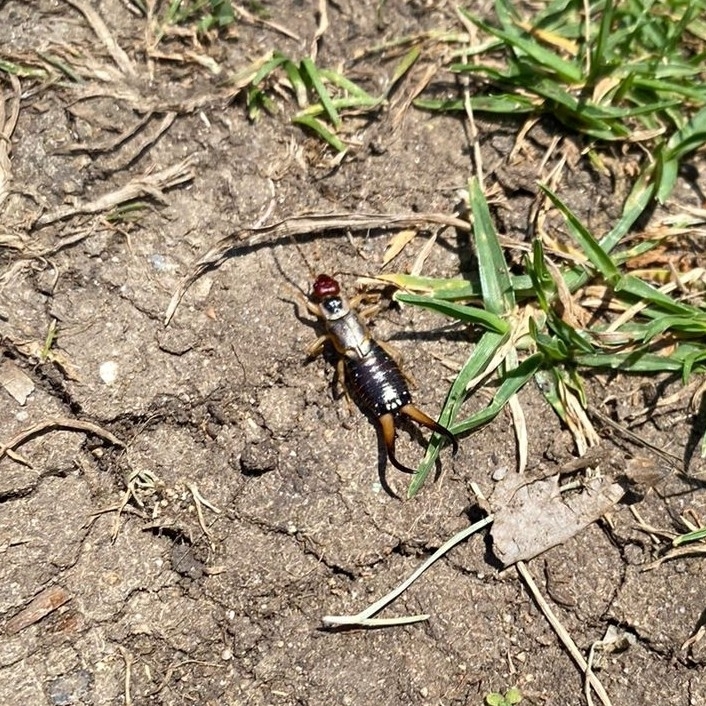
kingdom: Animalia
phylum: Arthropoda
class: Insecta
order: Dermaptera
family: Forficulidae
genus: Forficula
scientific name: Forficula
